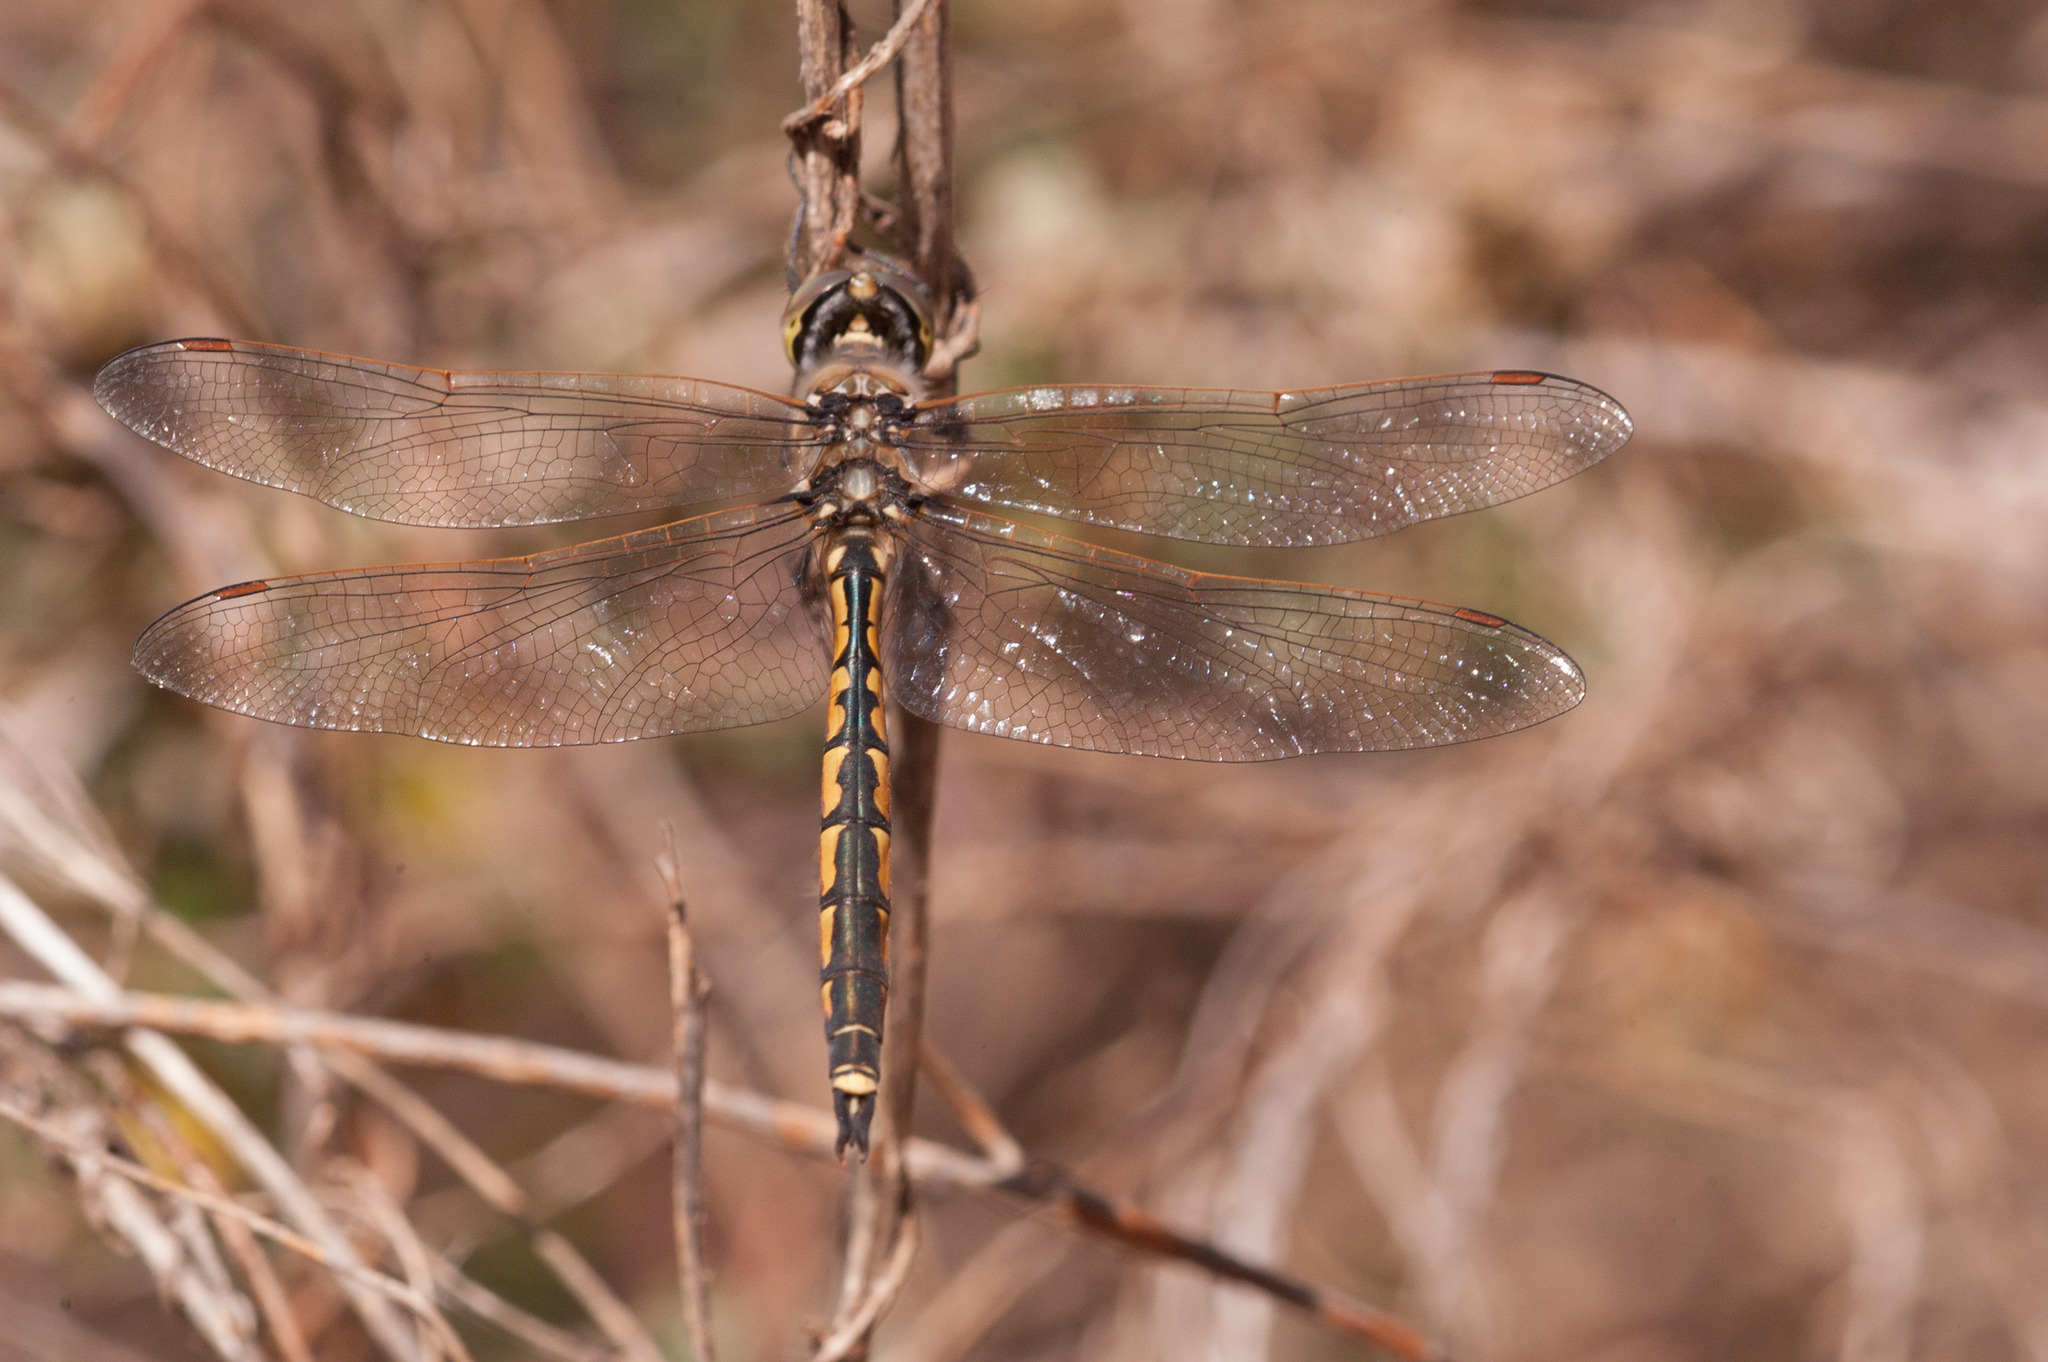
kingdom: Animalia
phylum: Arthropoda
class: Insecta
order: Odonata
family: Corduliidae
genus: Hemicordulia
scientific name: Hemicordulia tau
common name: Tau emerald
